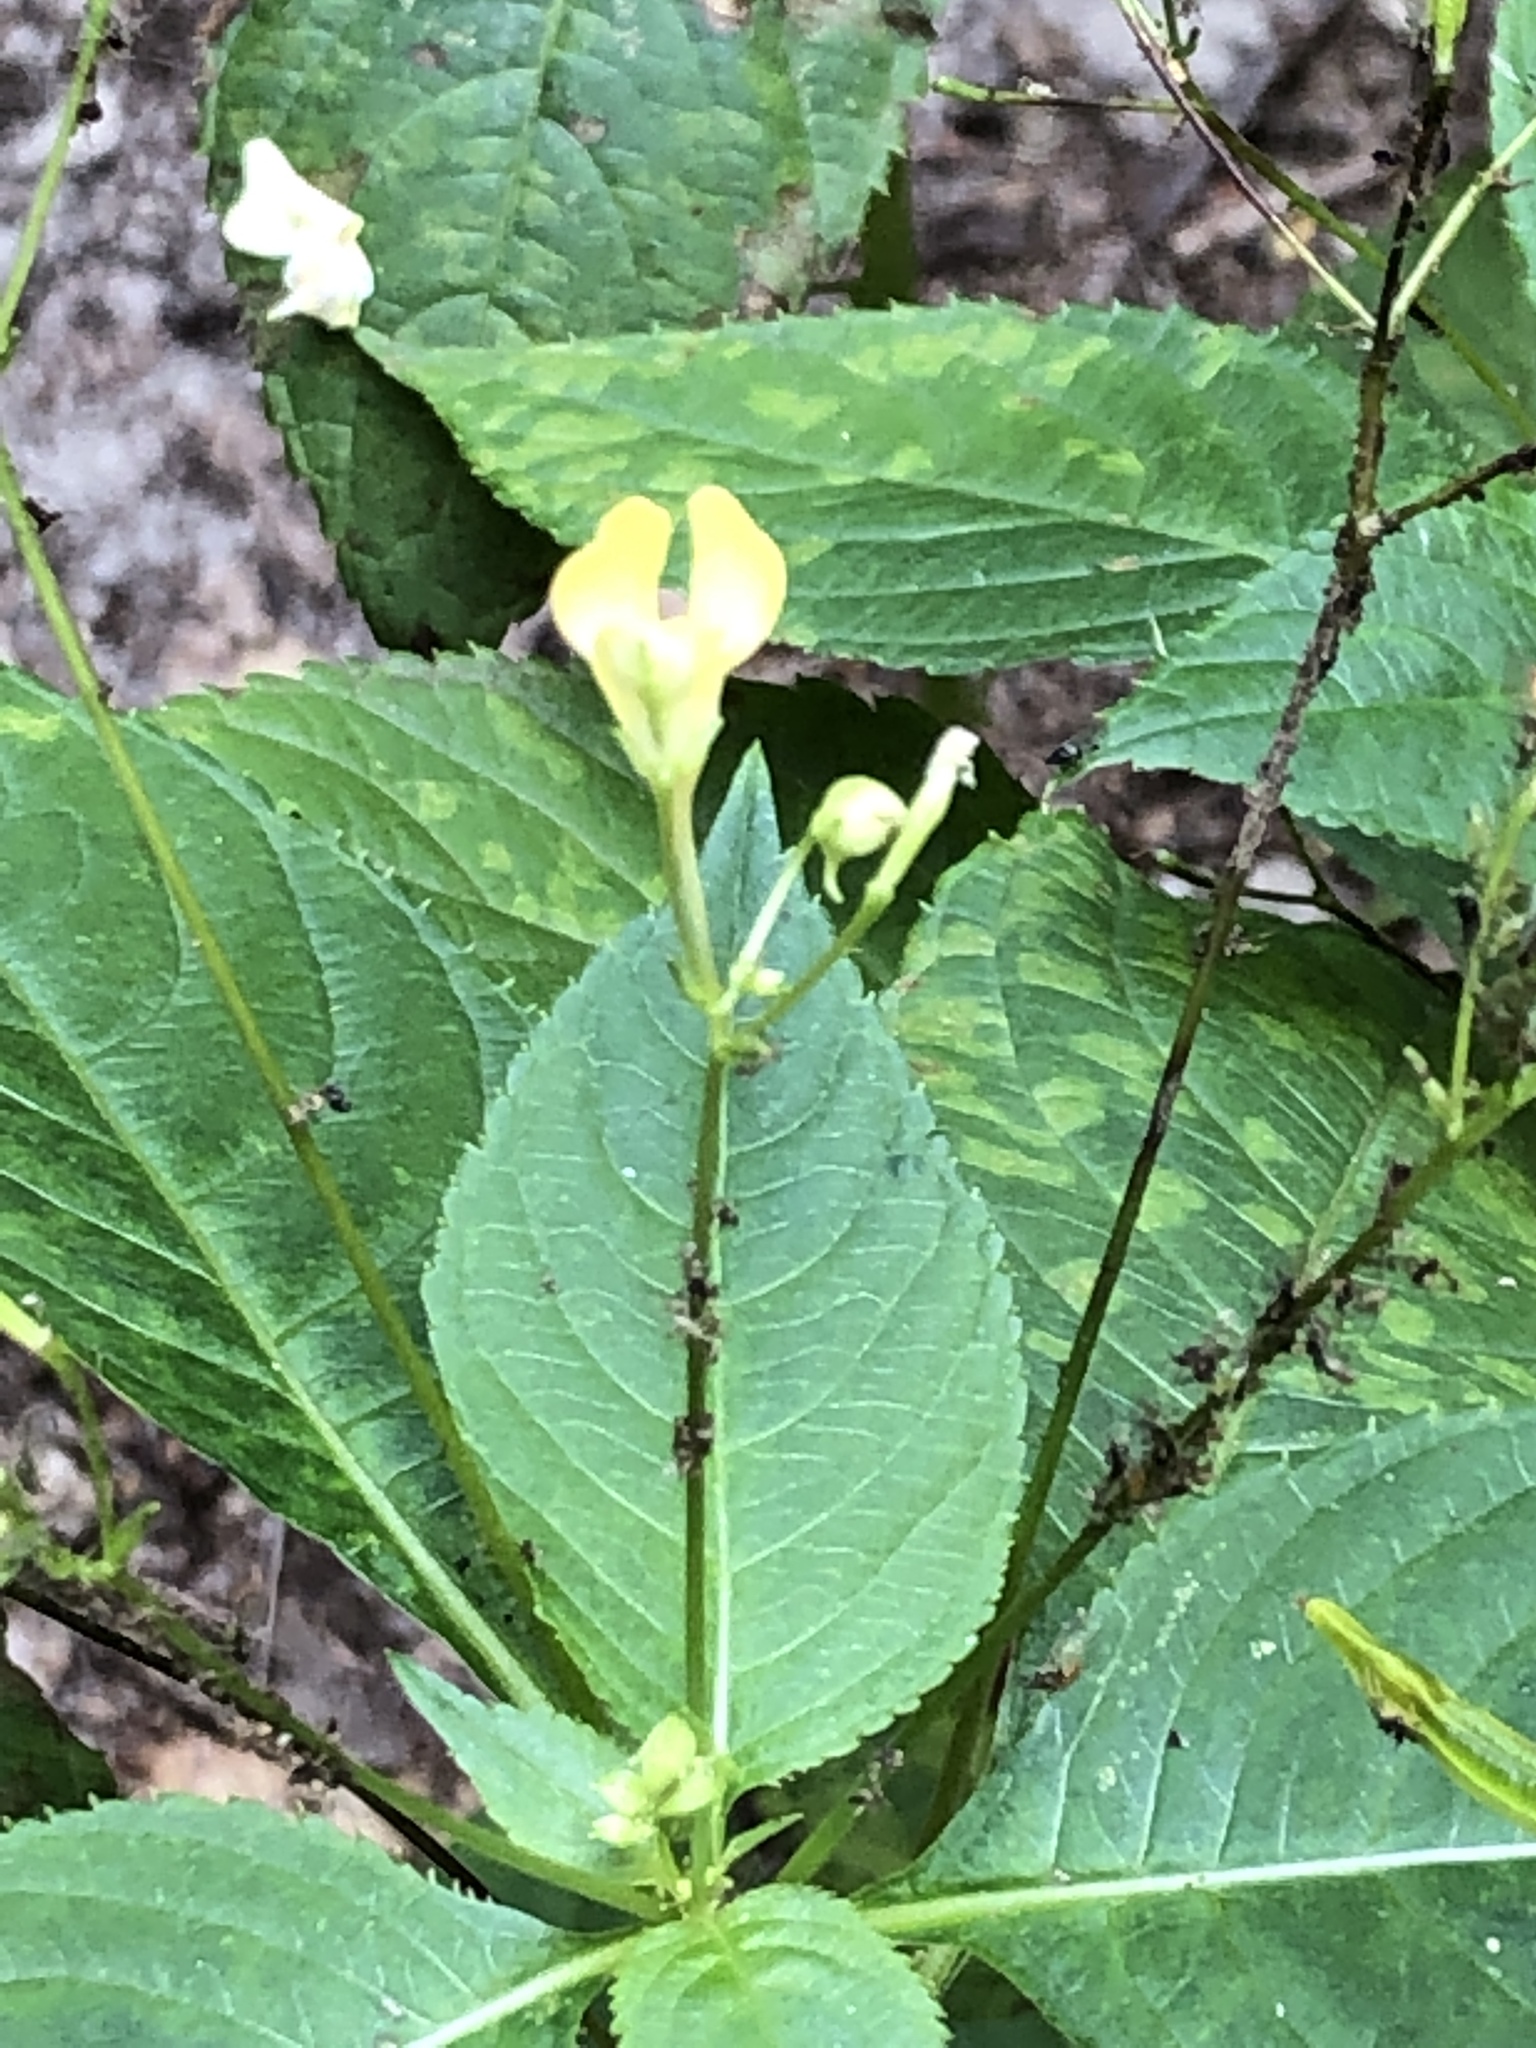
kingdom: Plantae
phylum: Tracheophyta
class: Magnoliopsida
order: Ericales
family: Balsaminaceae
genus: Impatiens
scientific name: Impatiens parviflora
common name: Small balsam
